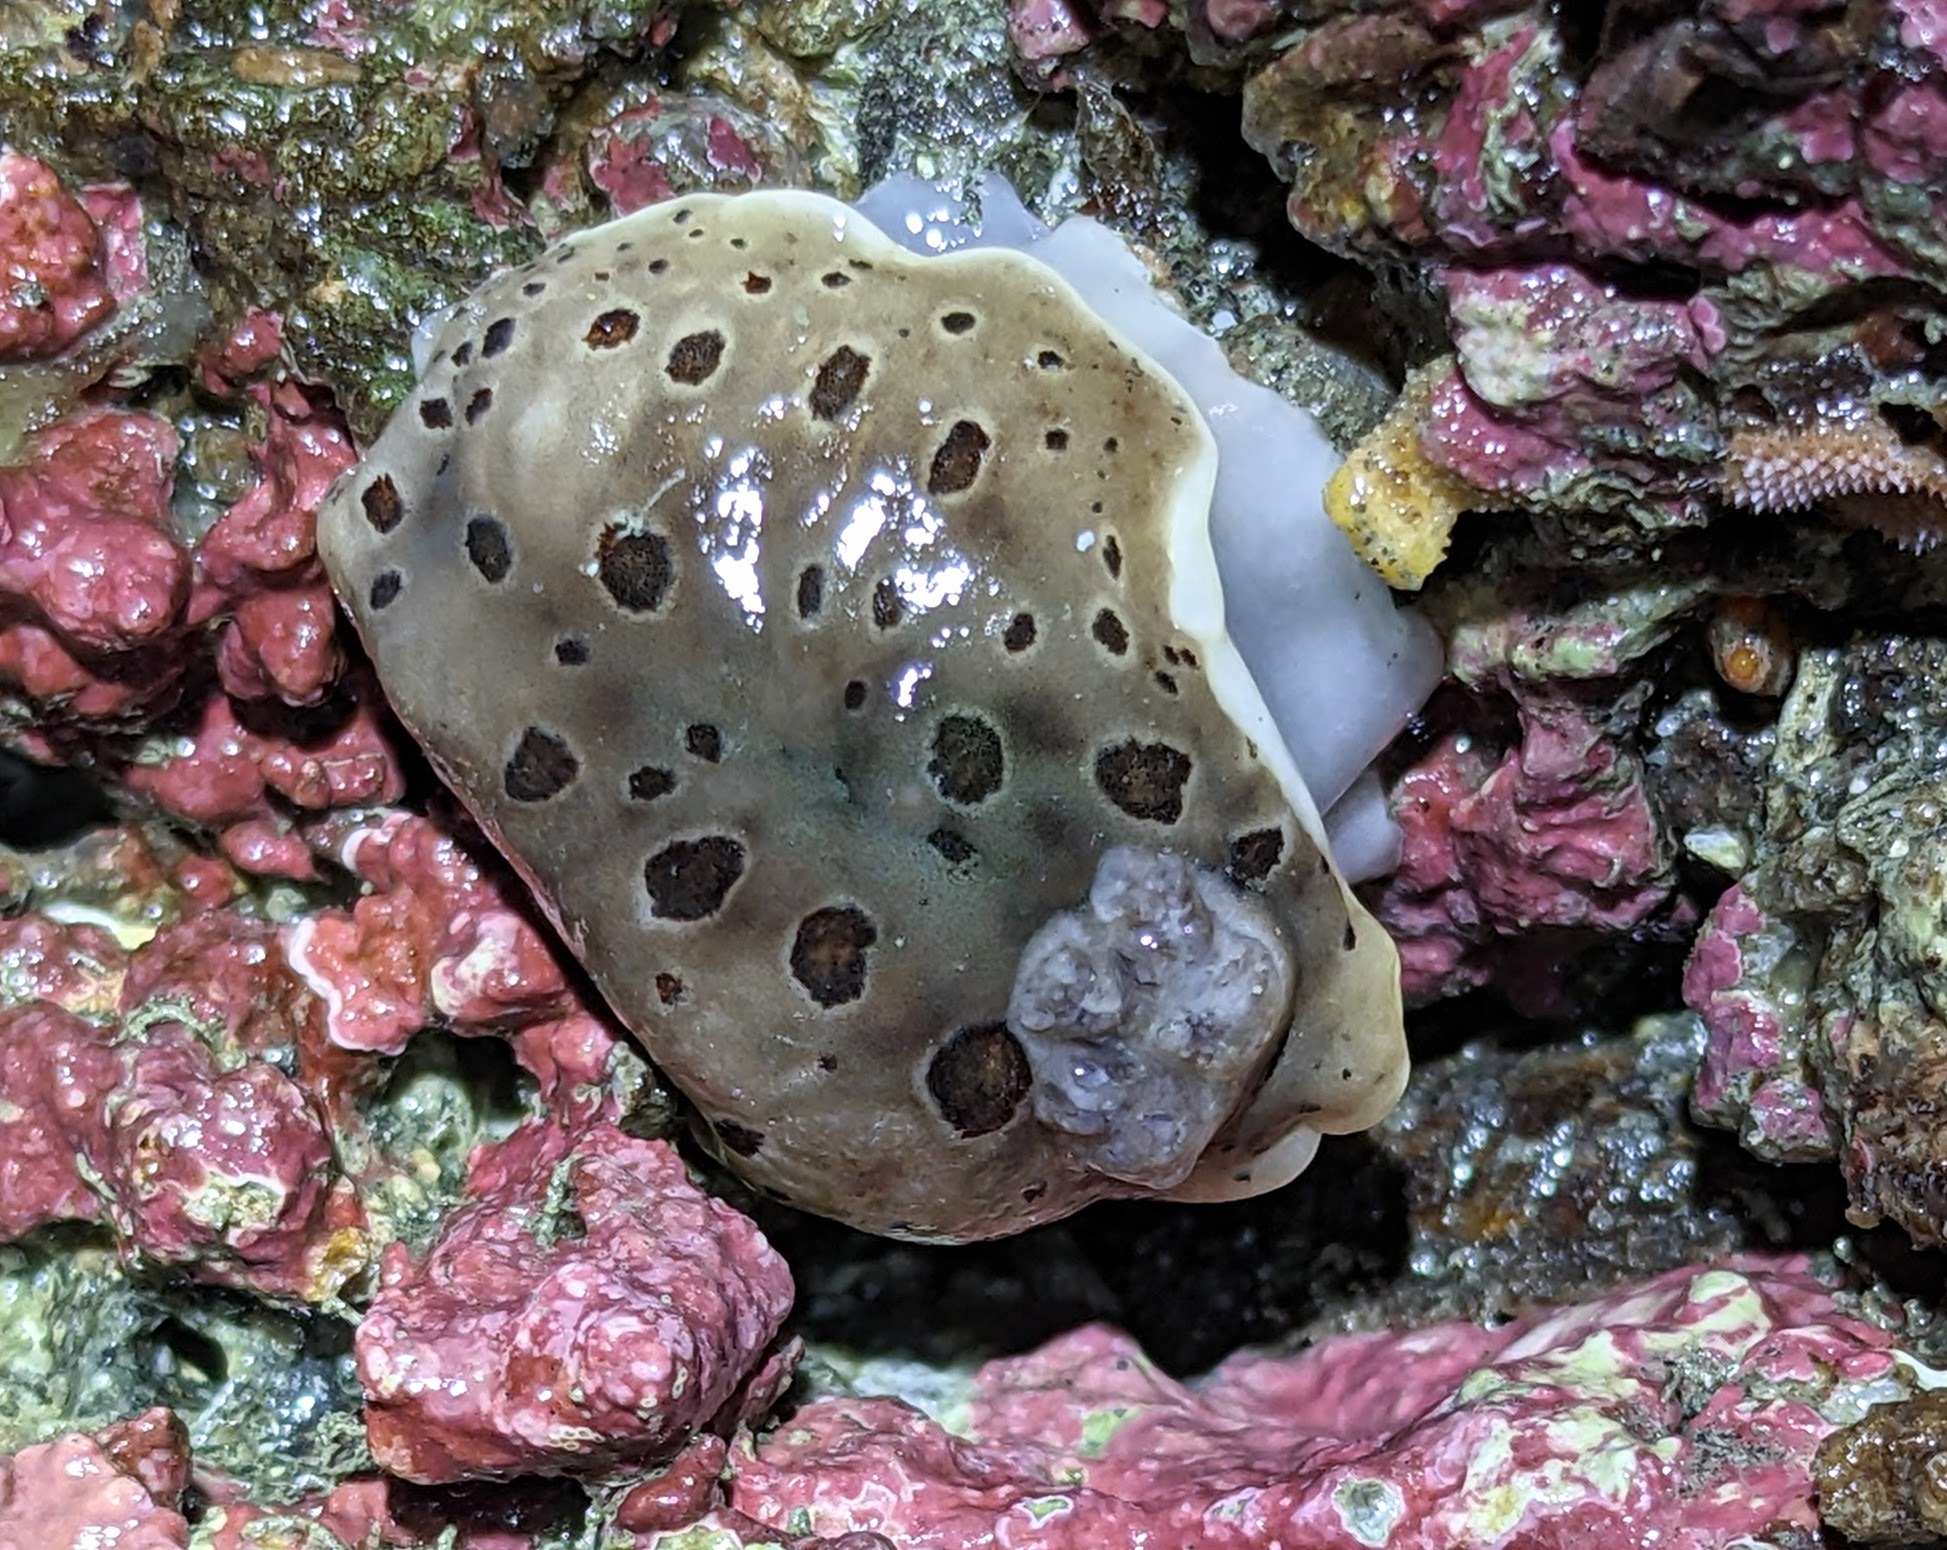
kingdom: Animalia
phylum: Mollusca
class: Gastropoda
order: Nudibranchia
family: Discodorididae
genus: Diaulula
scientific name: Diaulula odonoghuei
